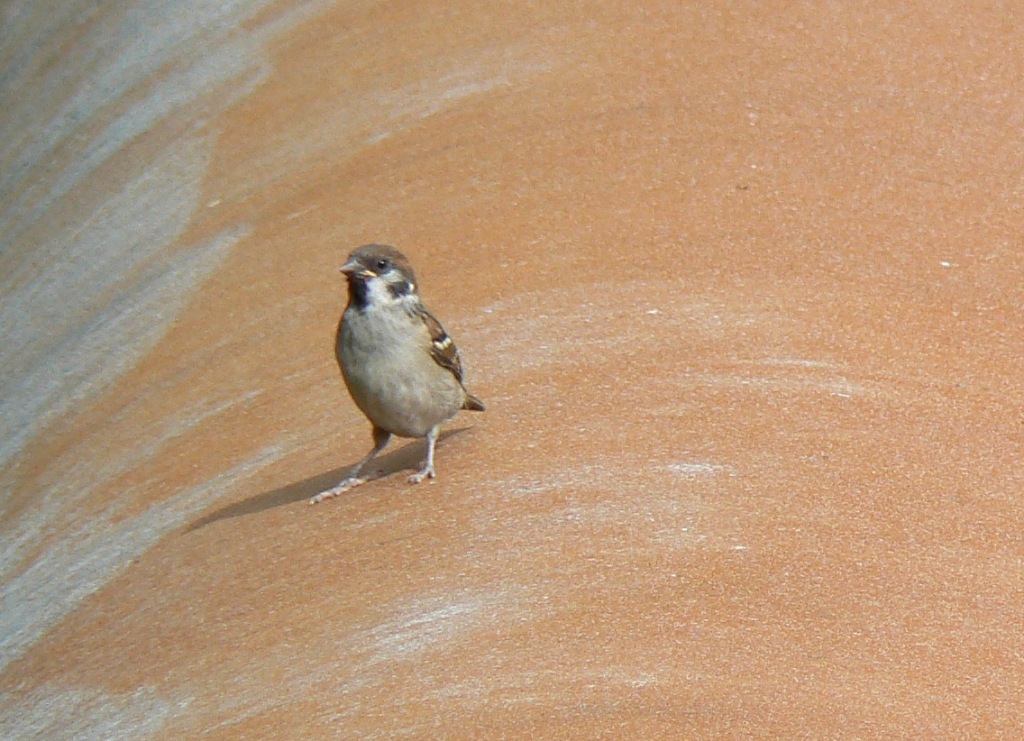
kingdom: Animalia
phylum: Chordata
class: Aves
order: Passeriformes
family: Passeridae
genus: Passer
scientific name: Passer montanus
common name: Eurasian tree sparrow
